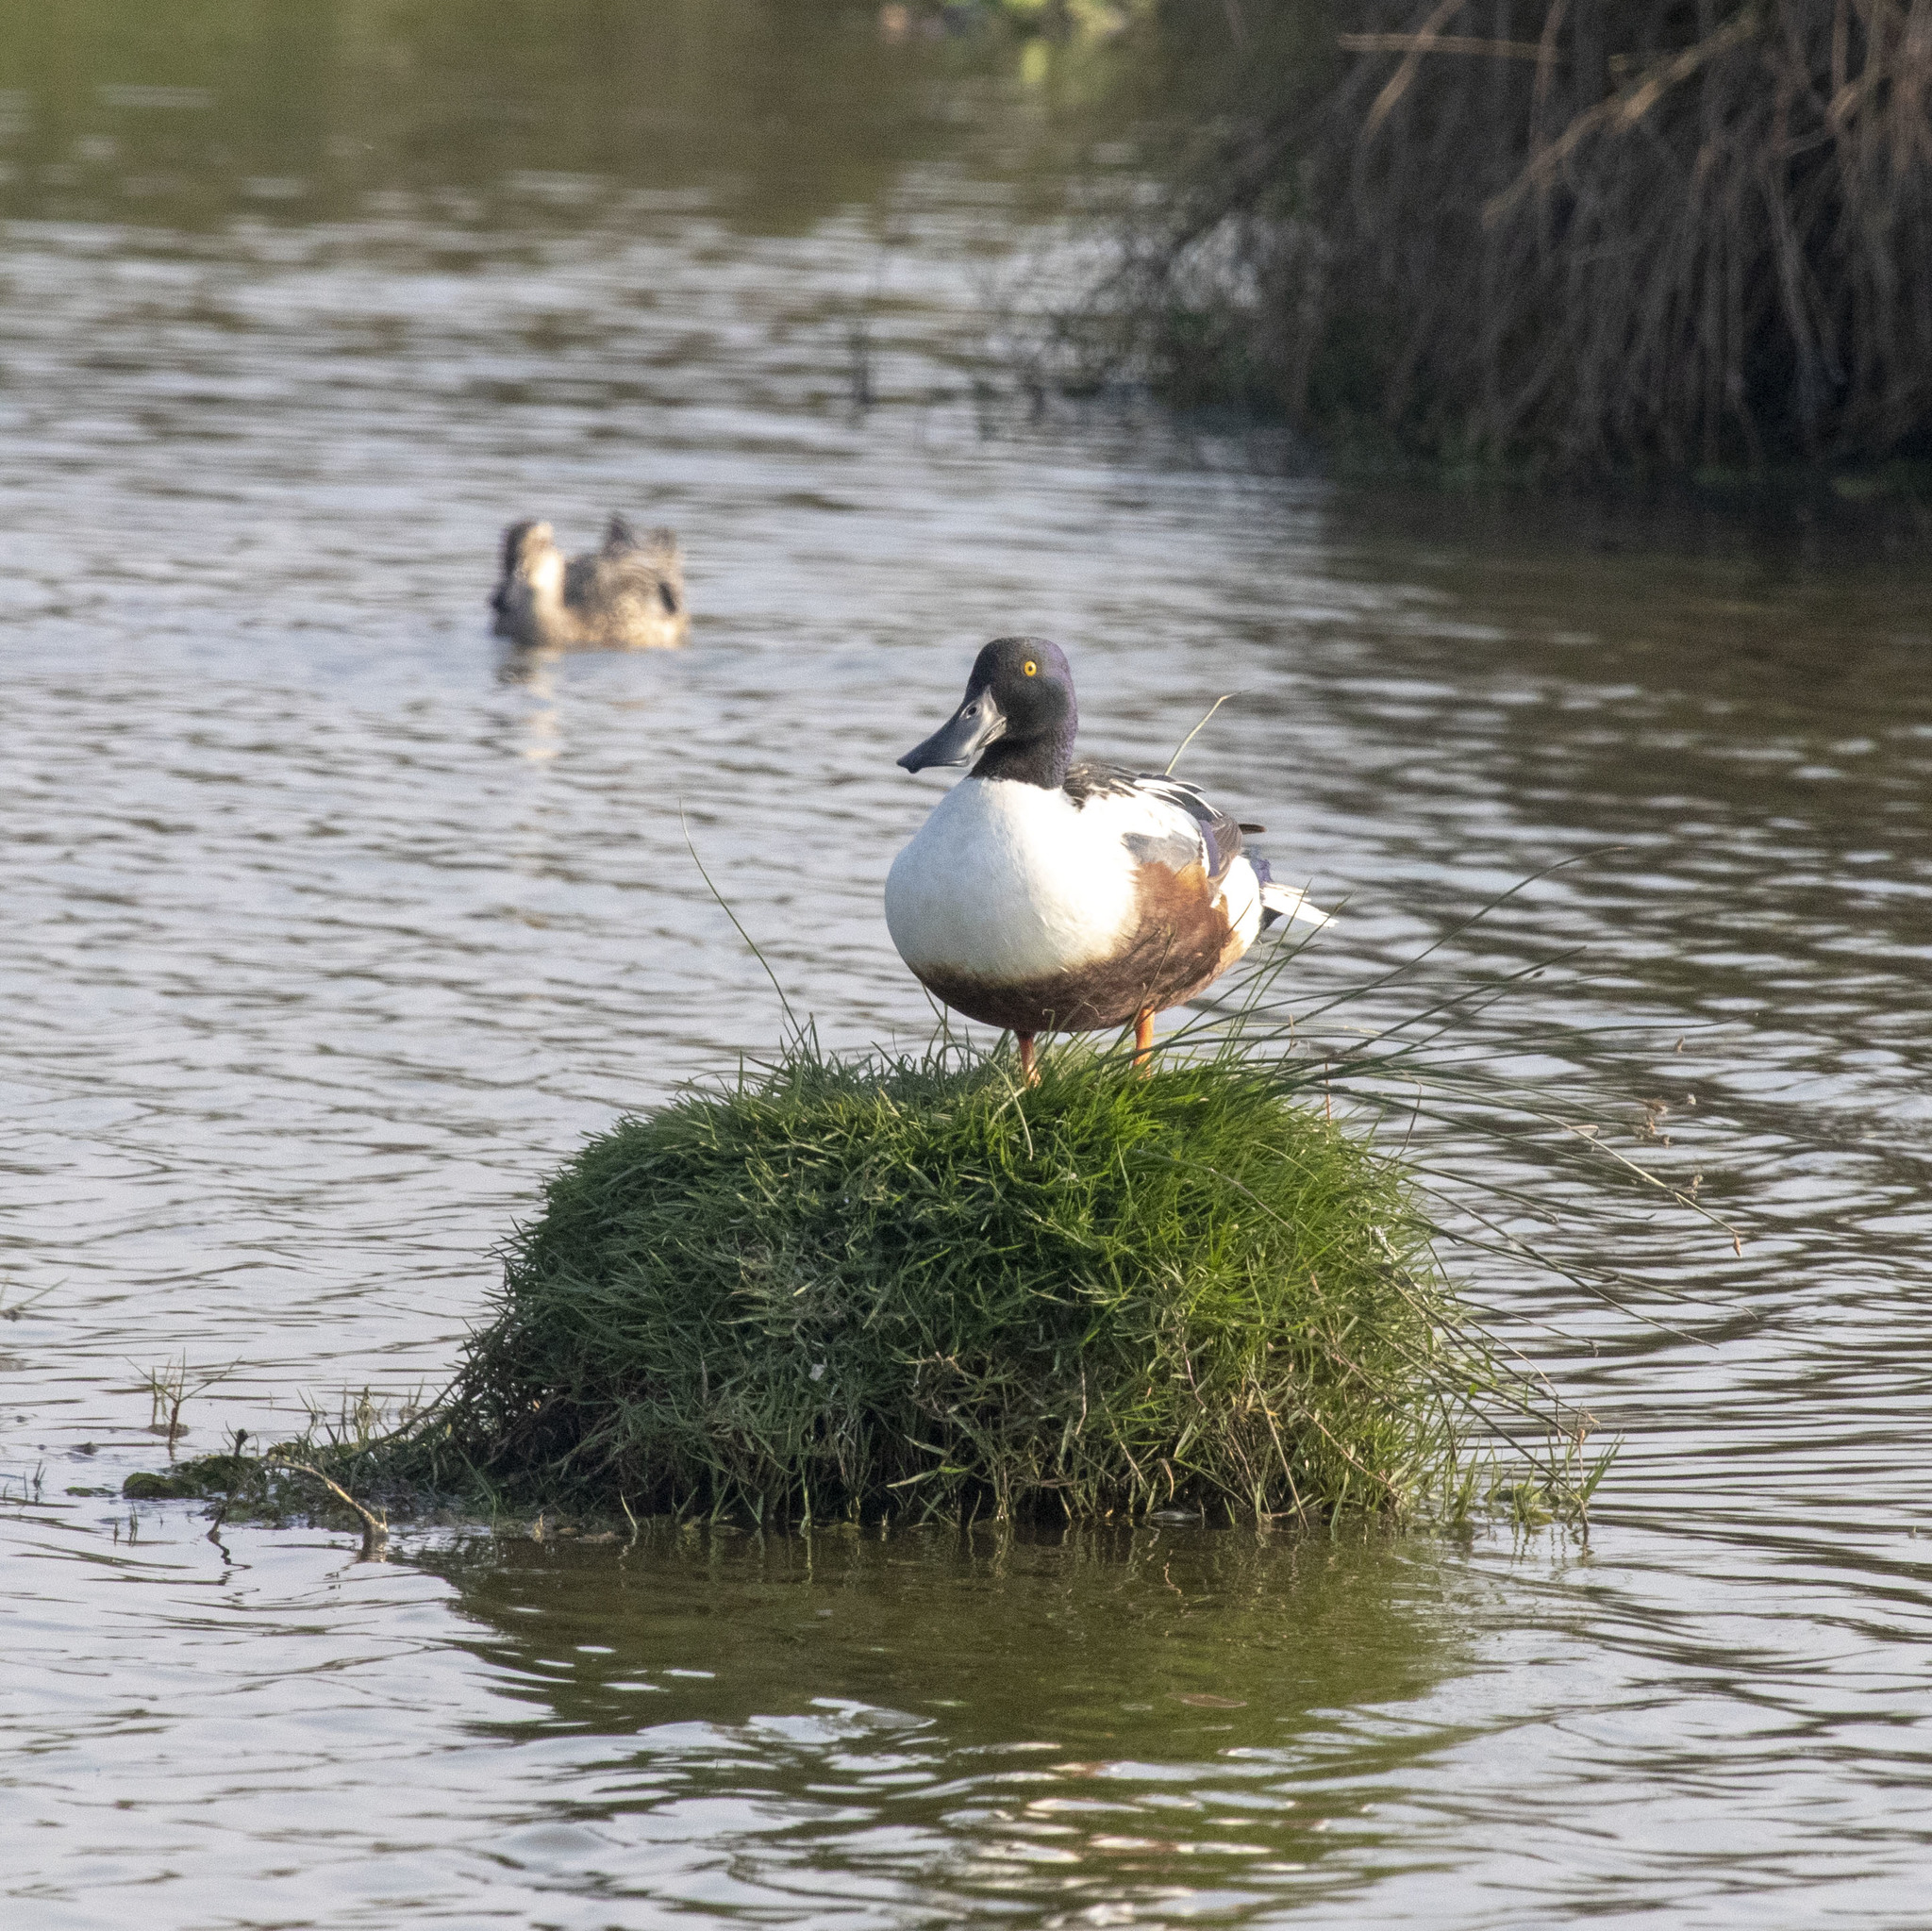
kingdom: Animalia
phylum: Chordata
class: Aves
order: Anseriformes
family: Anatidae
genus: Spatula
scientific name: Spatula clypeata
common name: Northern shoveler
